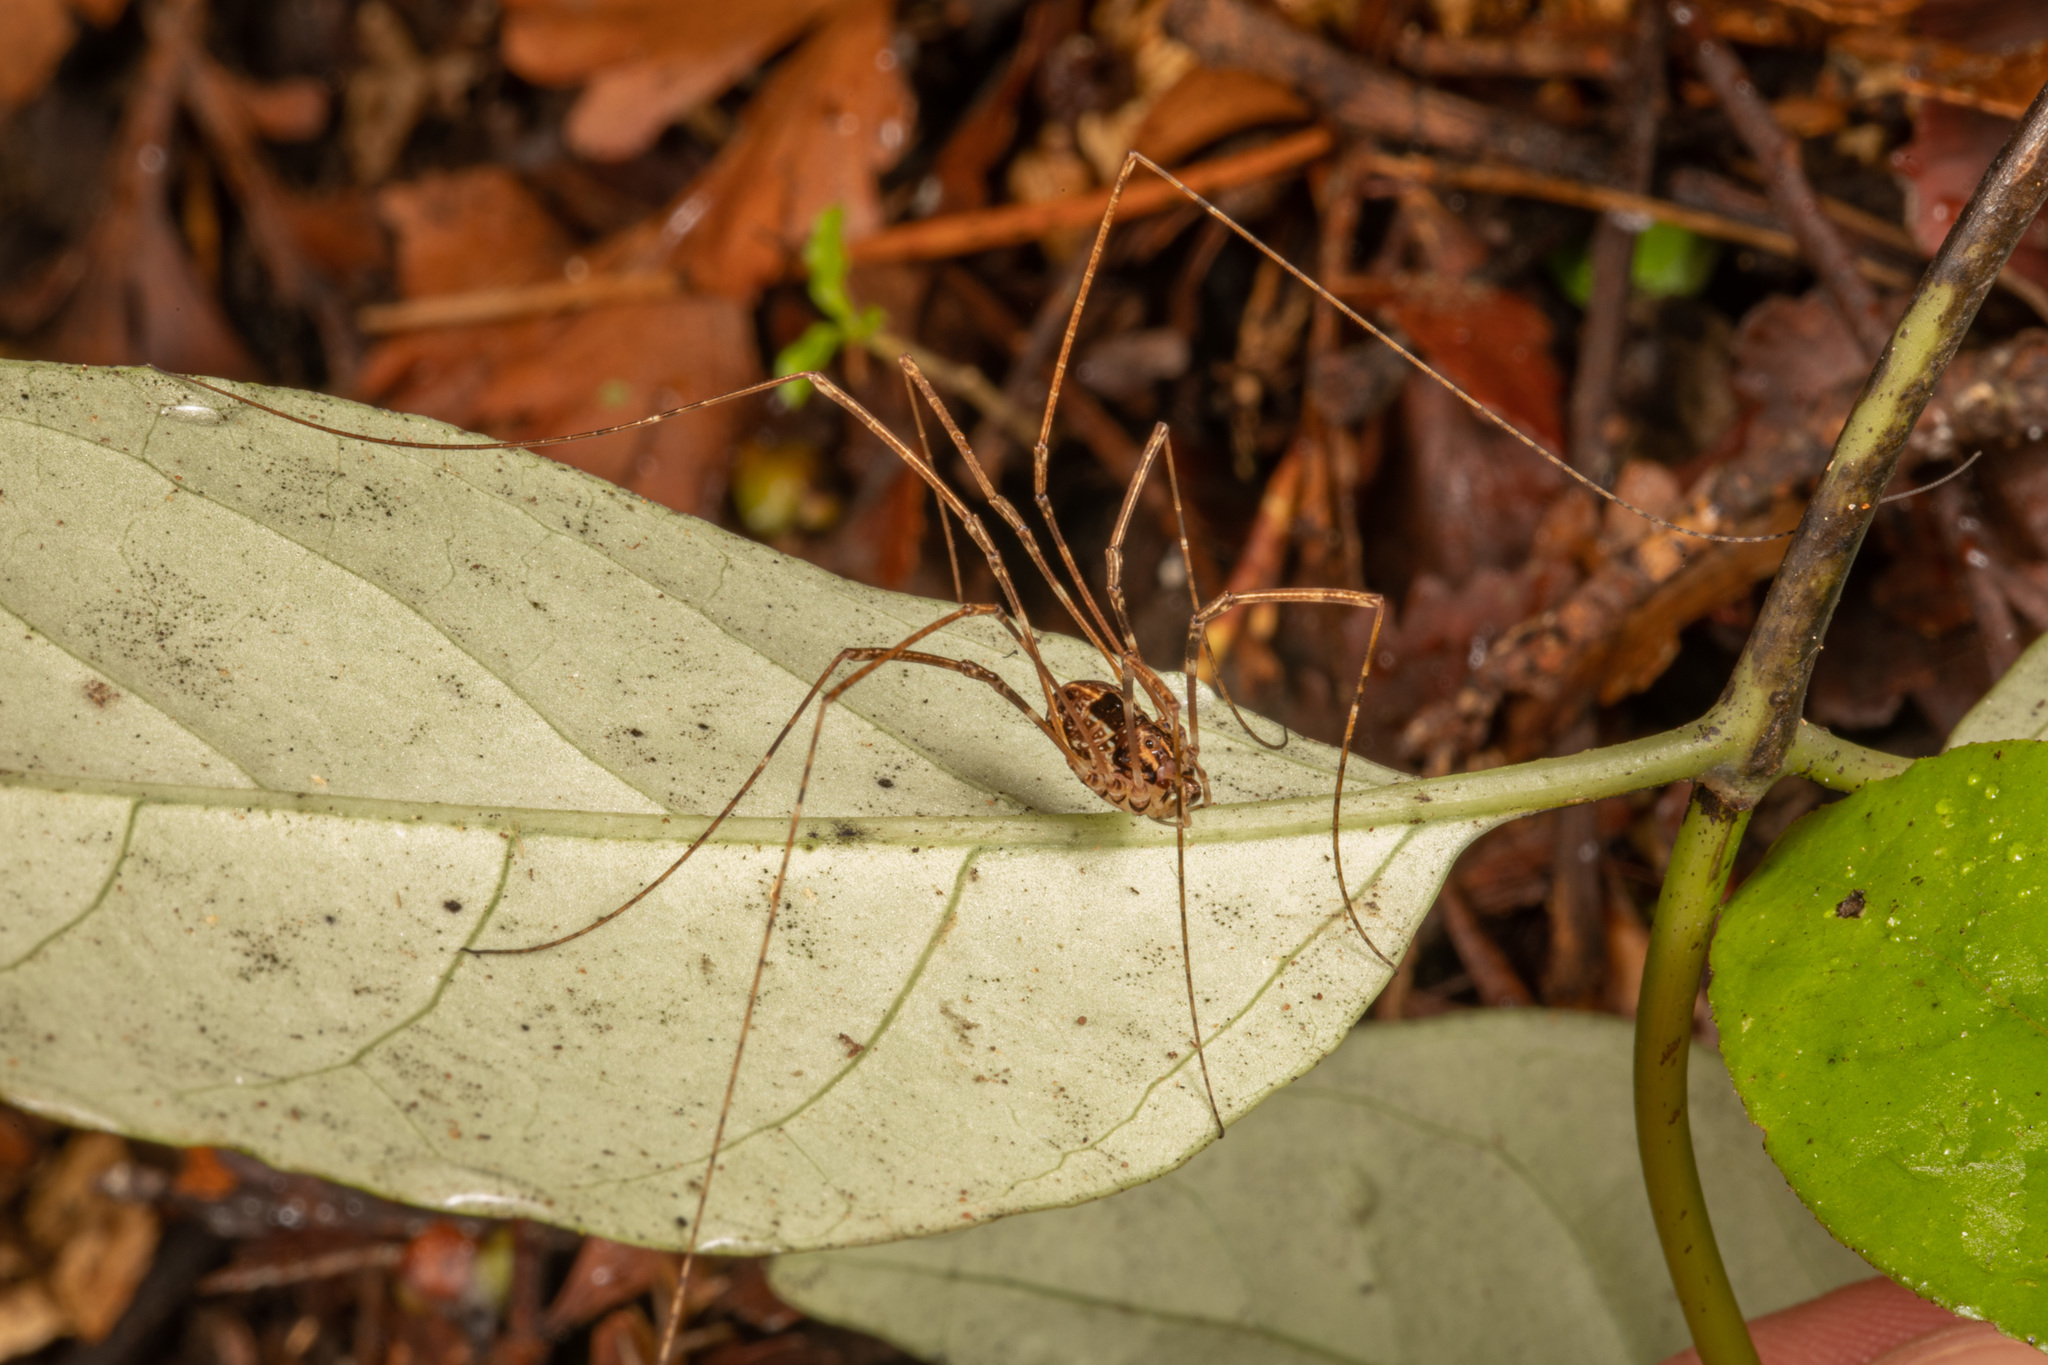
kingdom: Animalia
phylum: Arthropoda
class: Arachnida
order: Opiliones
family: Neopilionidae
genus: Forsteropsalis
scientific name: Forsteropsalis pureora
